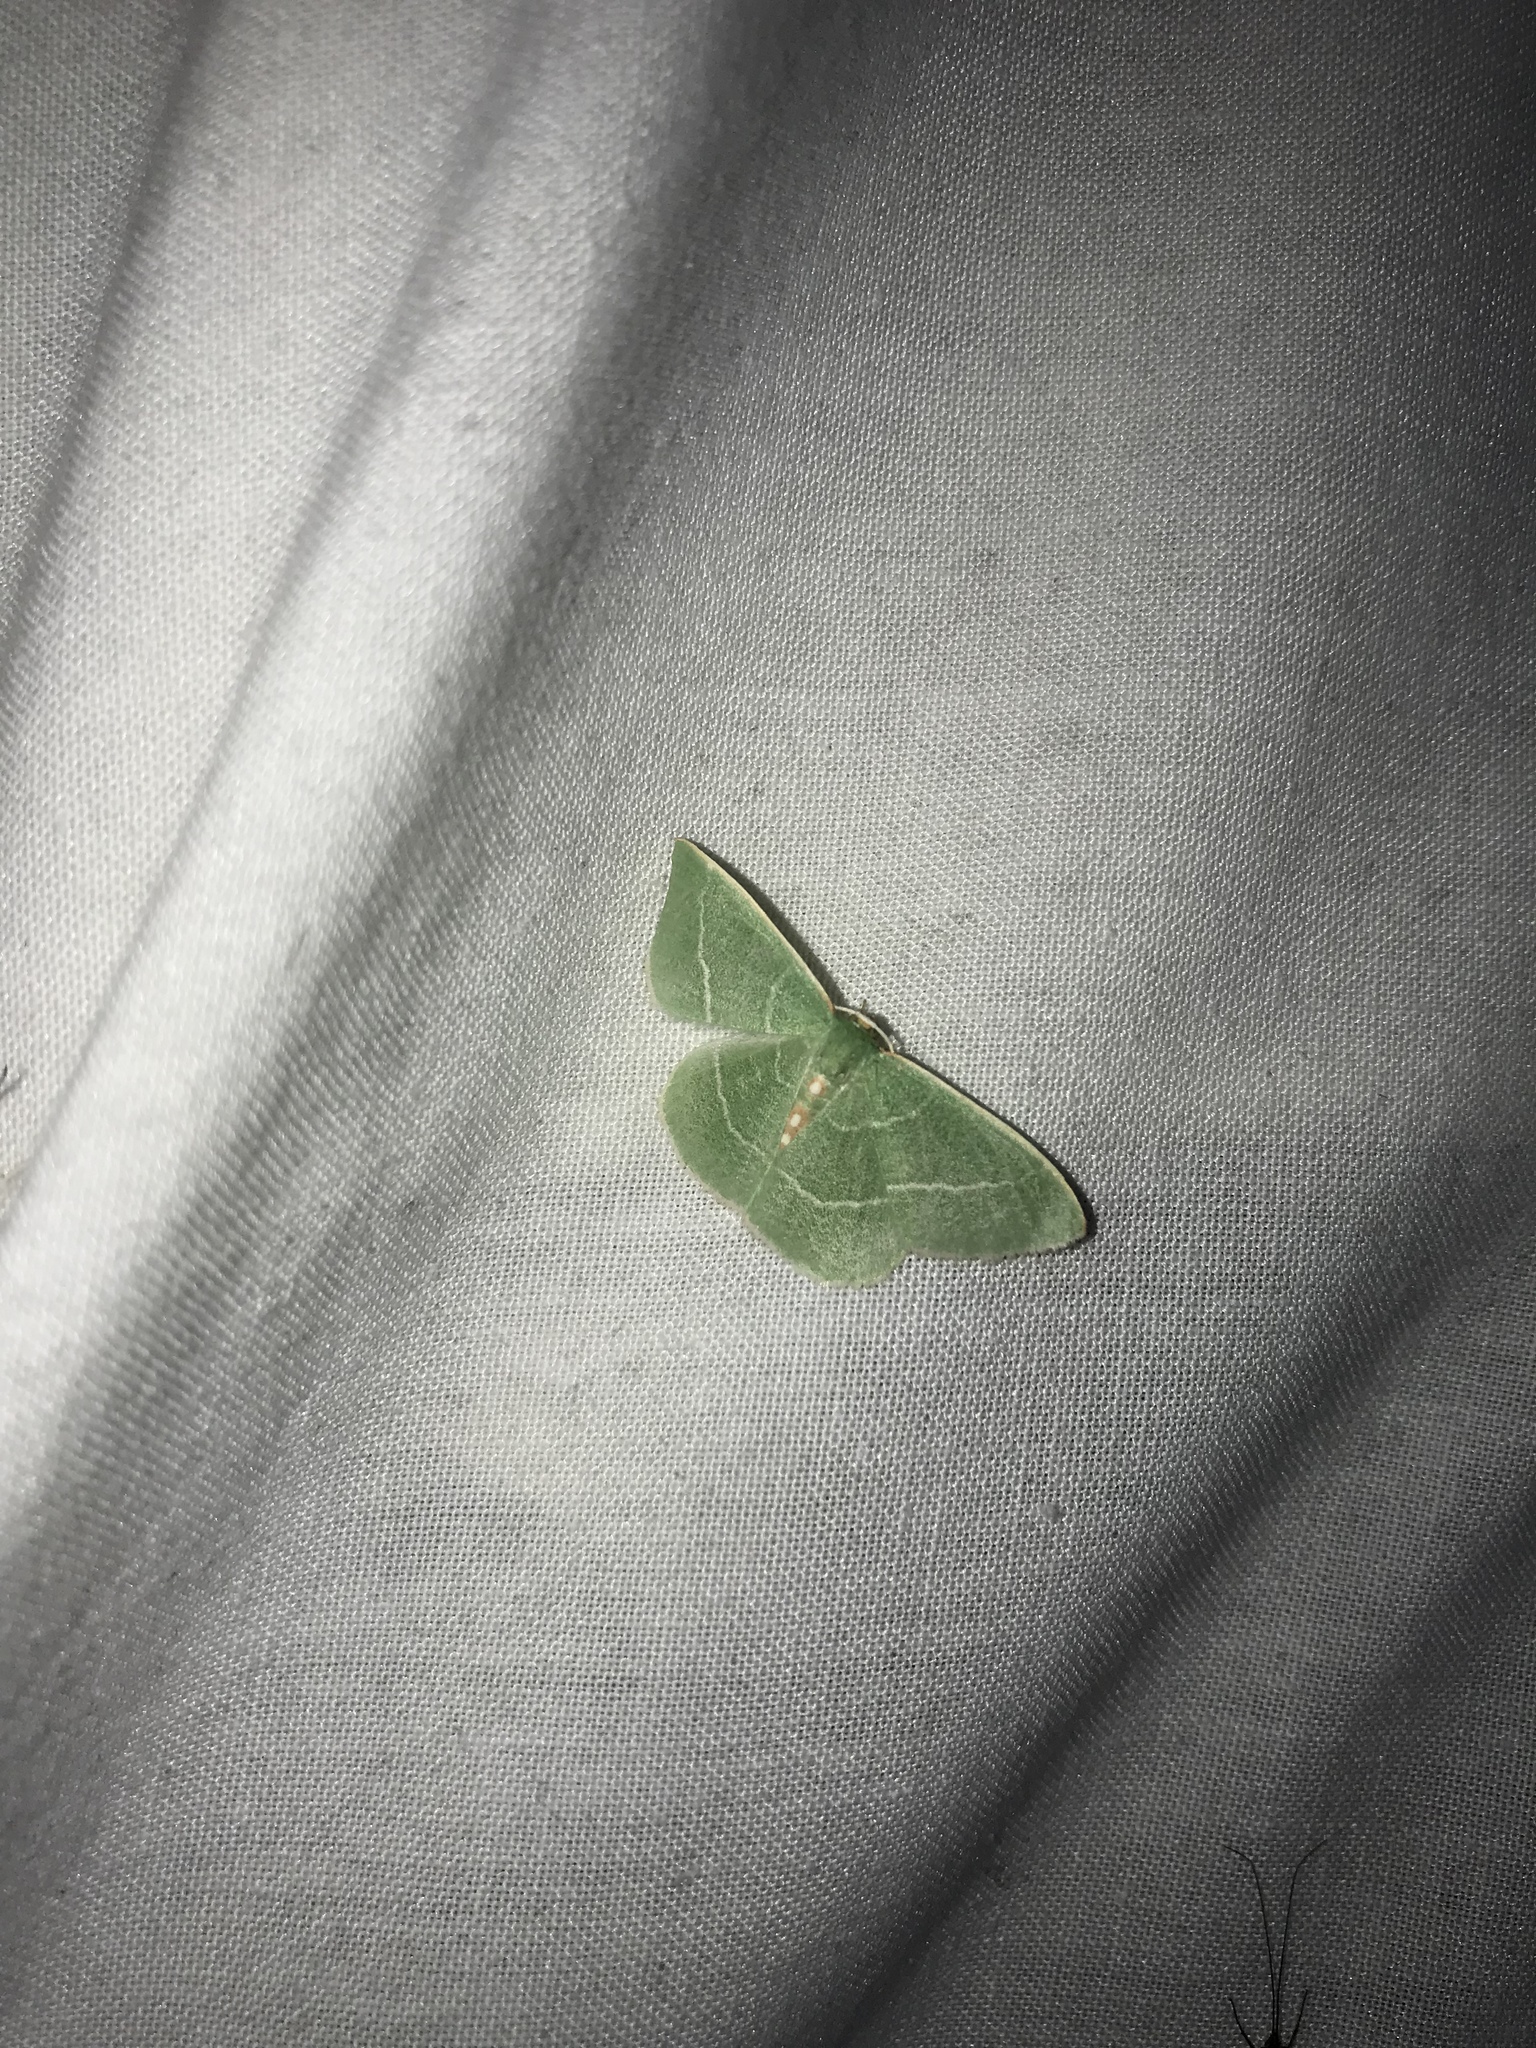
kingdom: Animalia
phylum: Arthropoda
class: Insecta
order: Lepidoptera
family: Geometridae
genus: Nemoria
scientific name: Nemoria rubrifrontaria
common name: Red-fronted emerald
